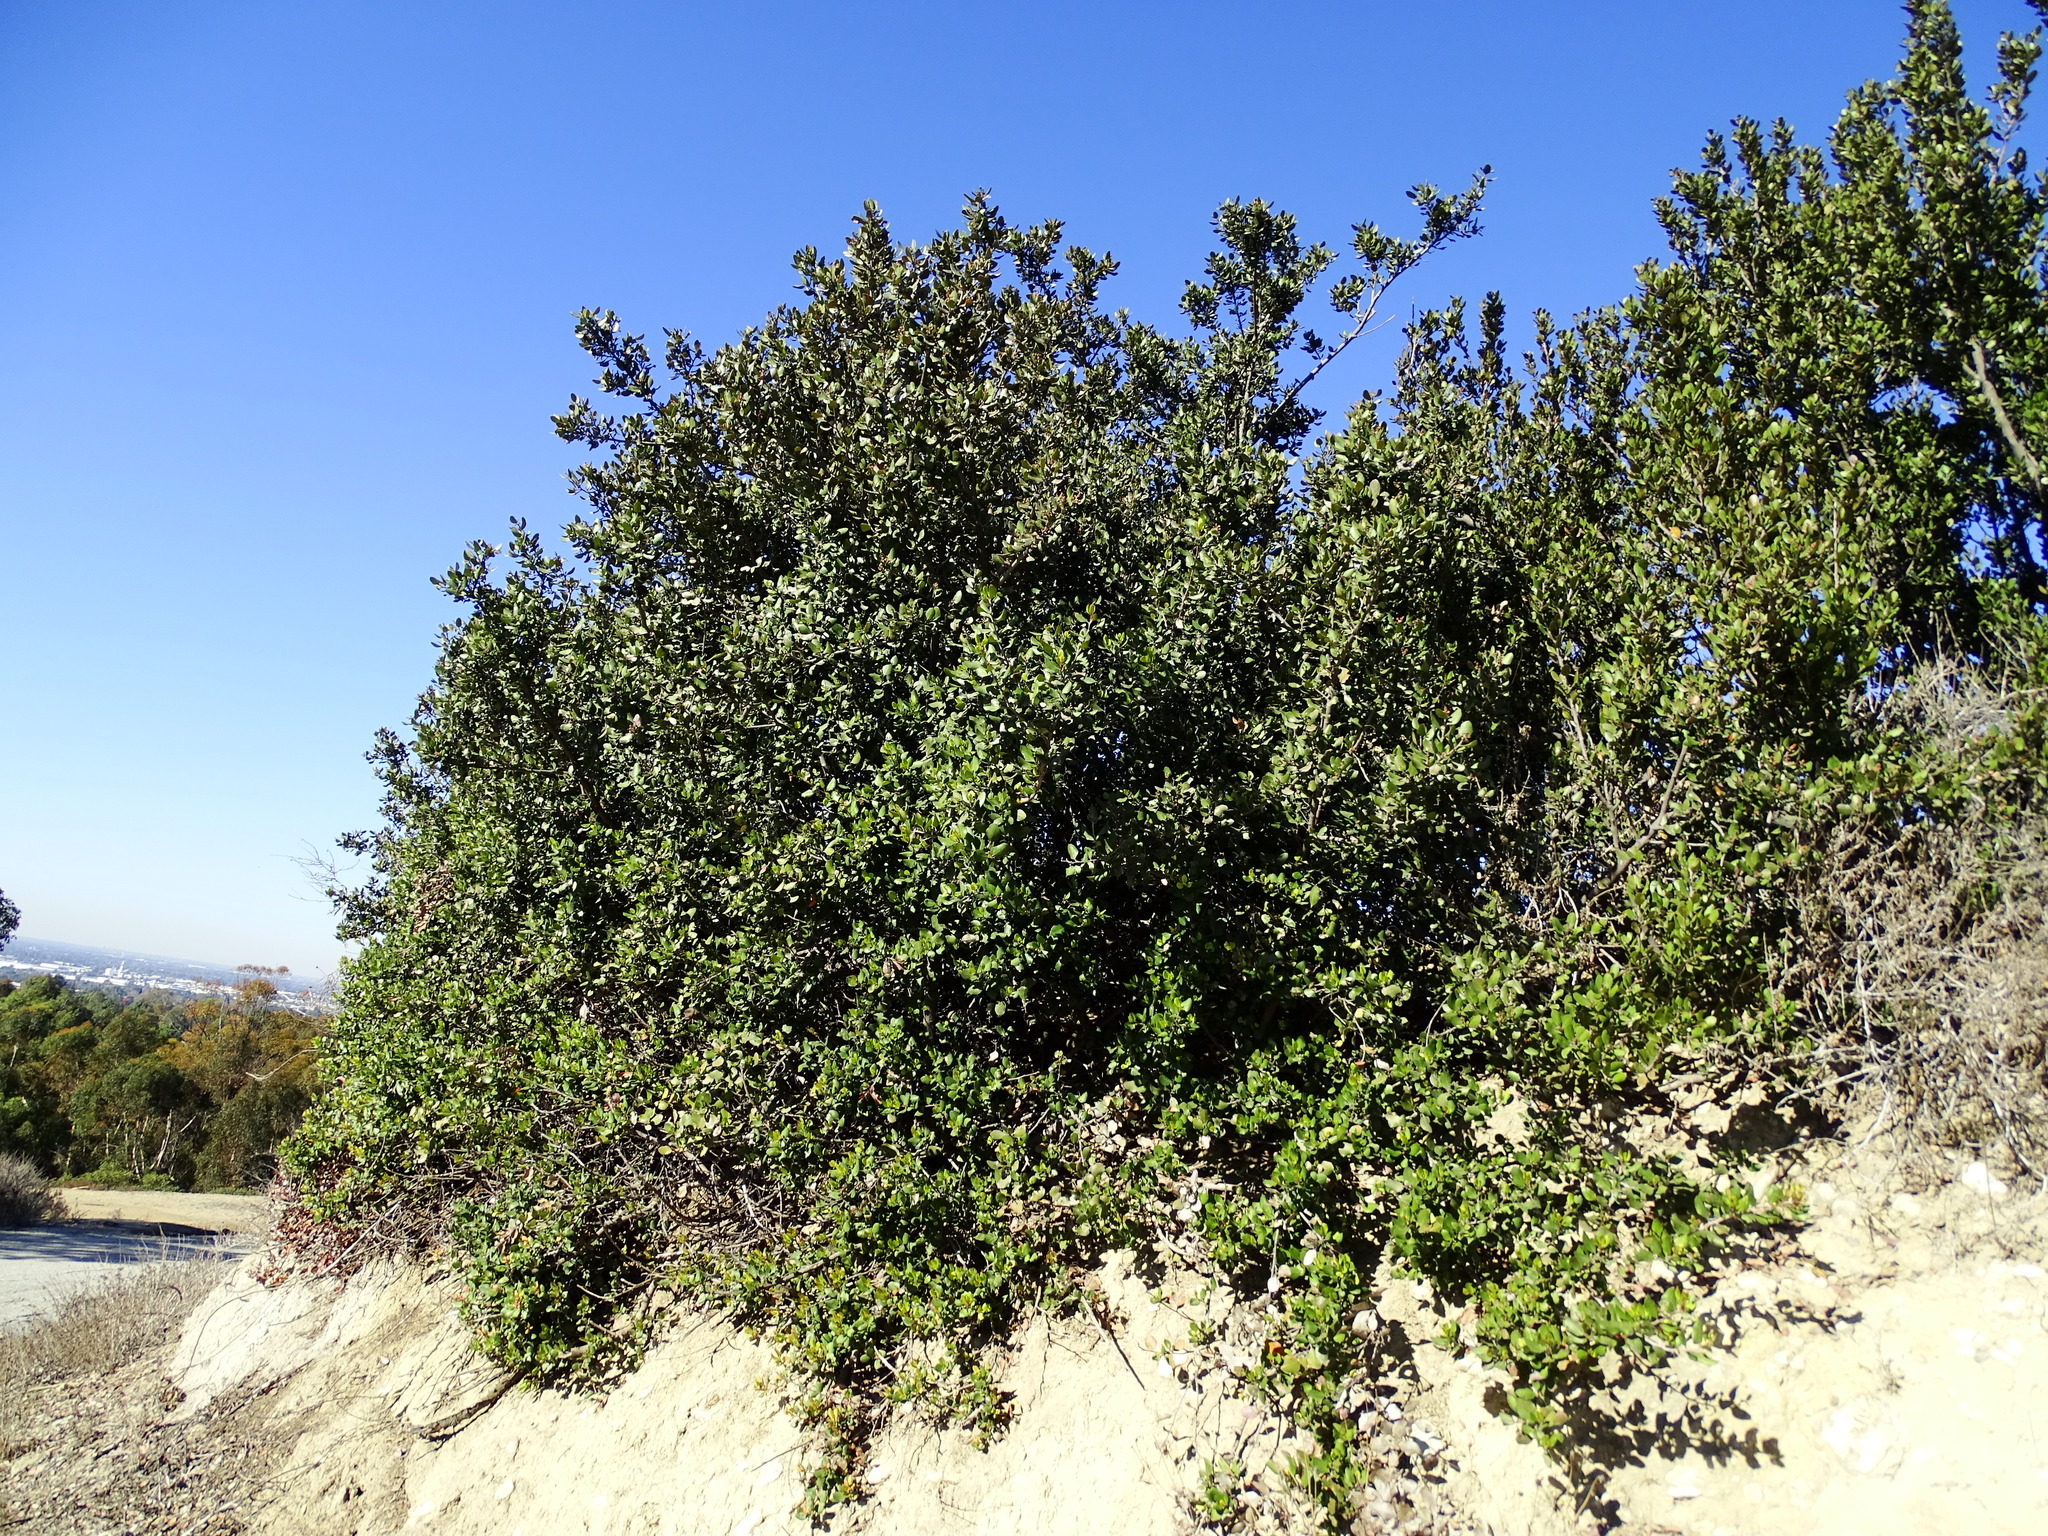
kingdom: Plantae
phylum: Tracheophyta
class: Magnoliopsida
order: Sapindales
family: Anacardiaceae
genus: Rhus
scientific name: Rhus integrifolia
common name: Lemonade sumac
